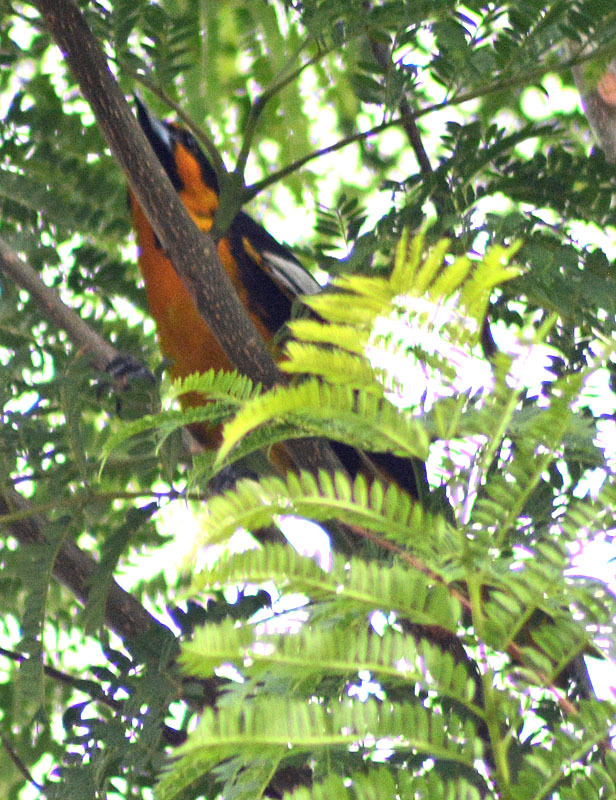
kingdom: Animalia
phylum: Chordata
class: Aves
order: Passeriformes
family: Icteridae
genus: Icterus
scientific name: Icterus abeillei
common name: Black-backed oriole
